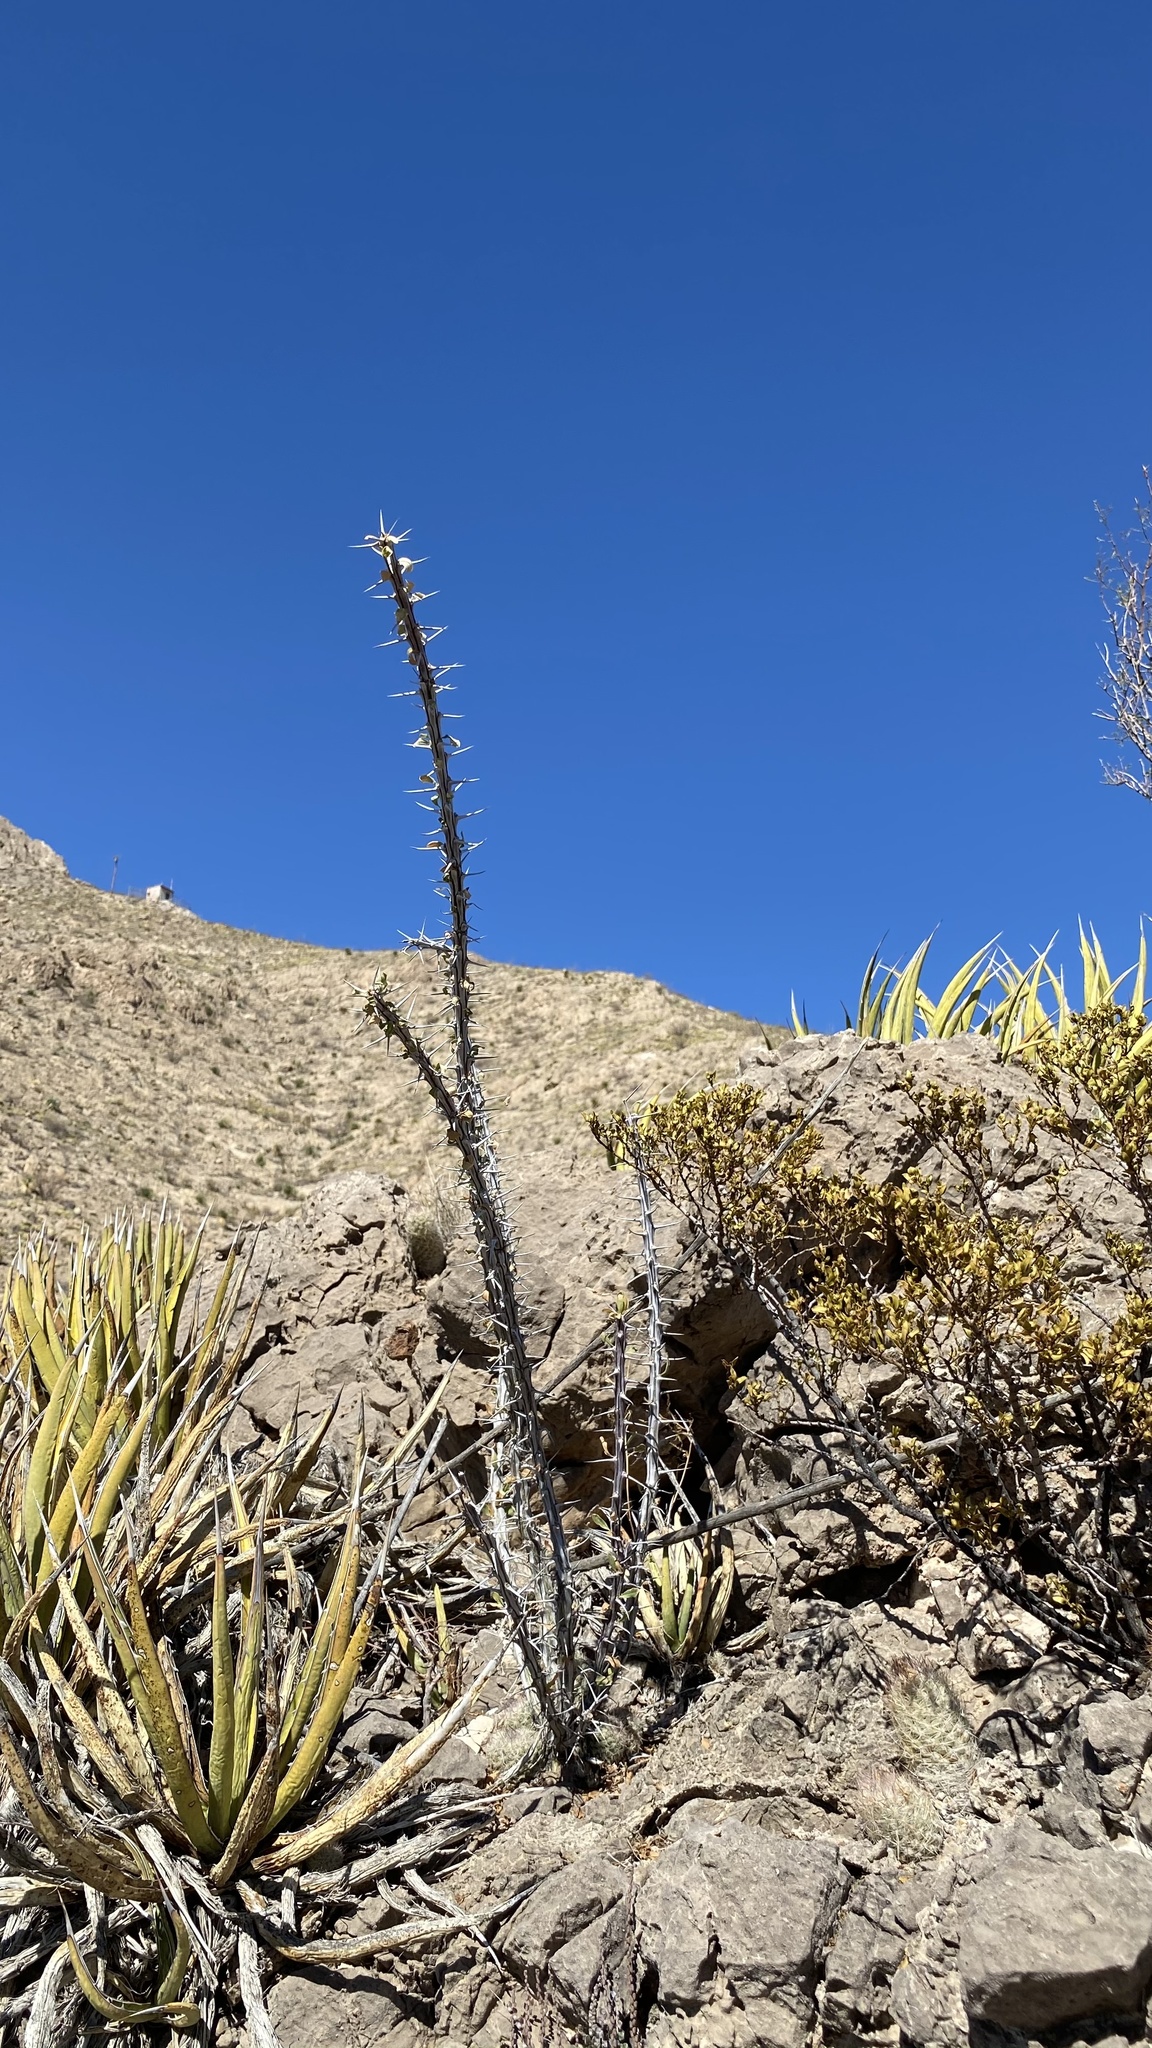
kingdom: Plantae
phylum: Tracheophyta
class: Magnoliopsida
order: Ericales
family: Fouquieriaceae
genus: Fouquieria
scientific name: Fouquieria splendens
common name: Vine-cactus
